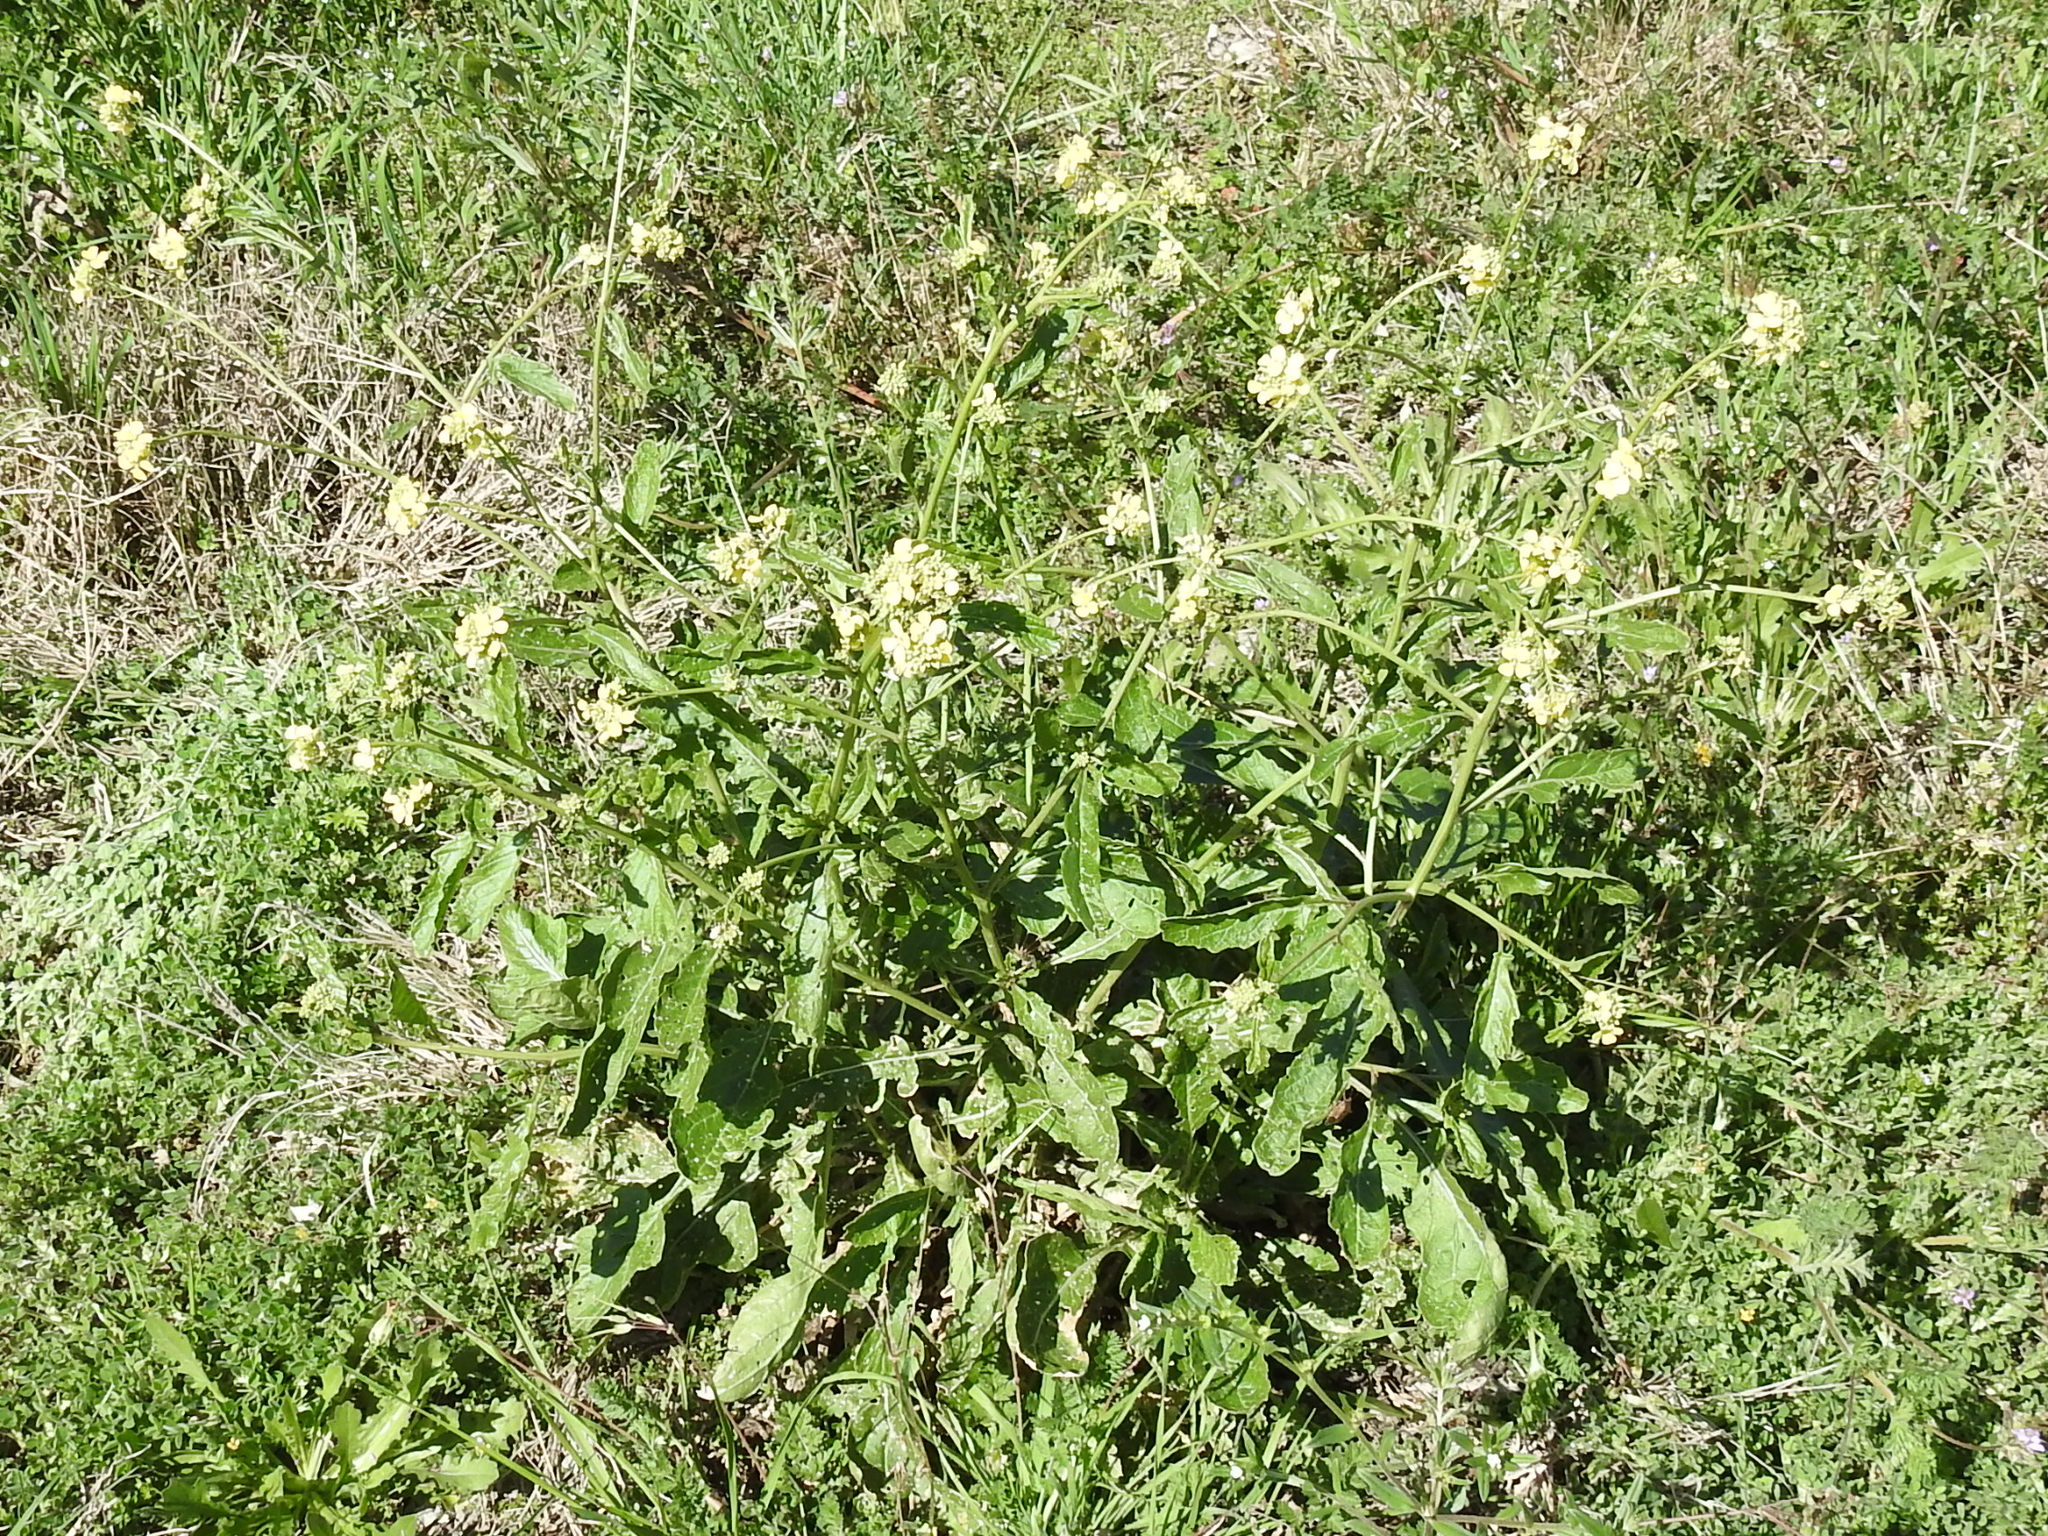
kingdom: Plantae
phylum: Tracheophyta
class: Magnoliopsida
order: Brassicales
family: Brassicaceae
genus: Rapistrum
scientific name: Rapistrum rugosum
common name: Annual bastardcabbage
